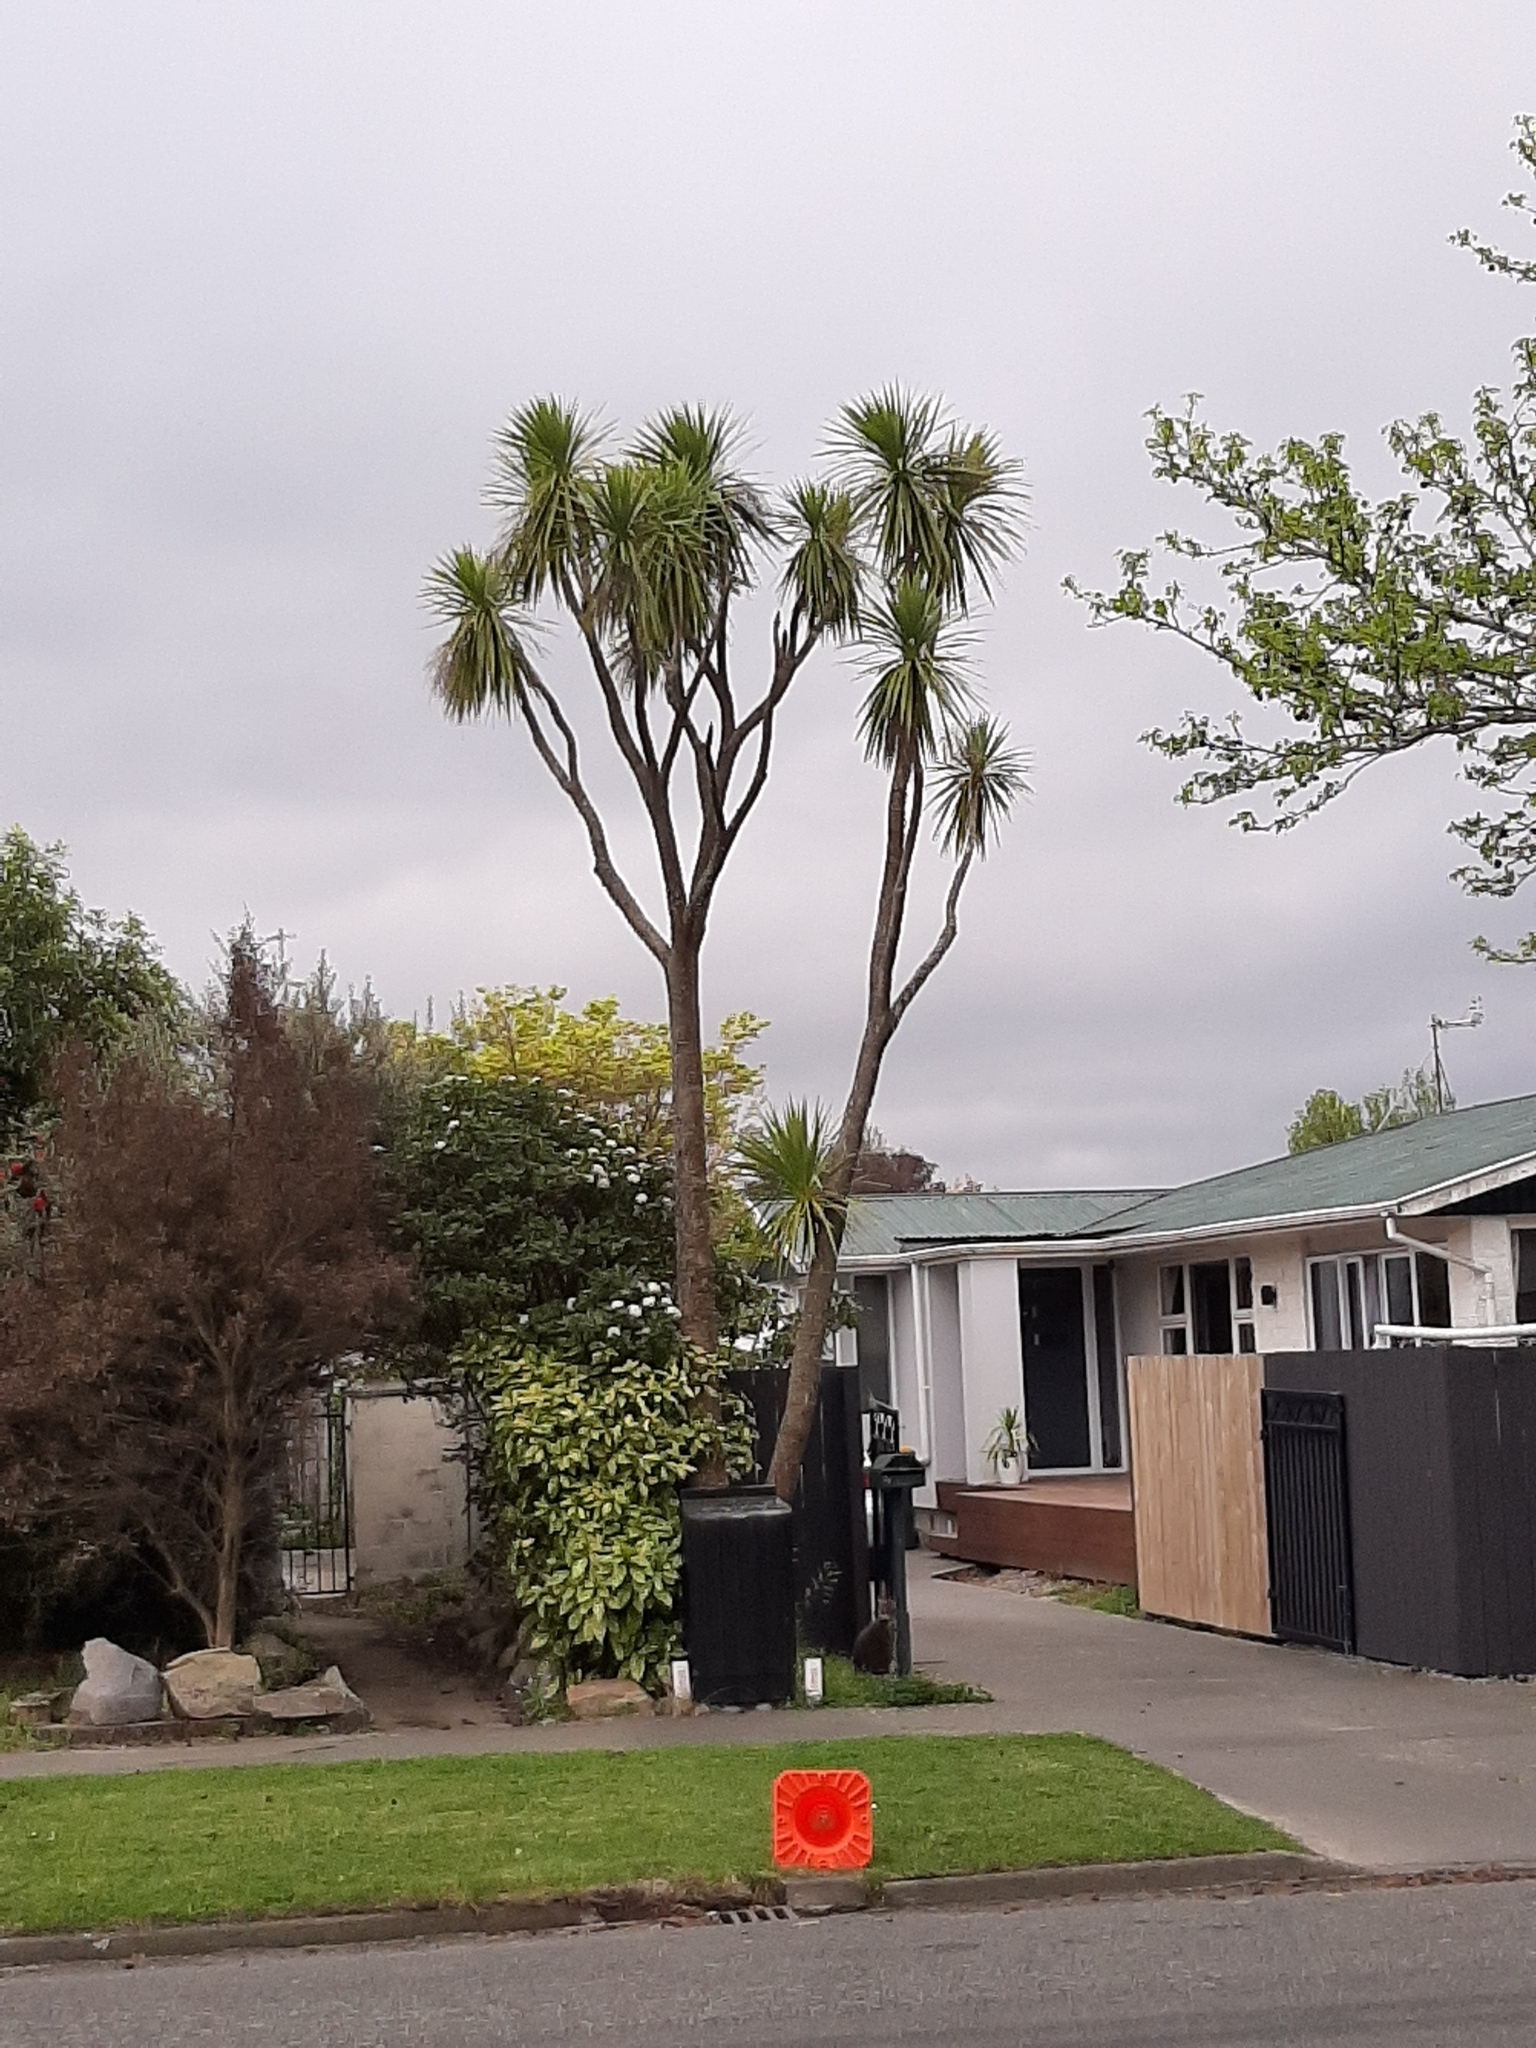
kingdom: Plantae
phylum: Tracheophyta
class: Liliopsida
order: Asparagales
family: Asparagaceae
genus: Cordyline
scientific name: Cordyline australis
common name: Cabbage-palm
